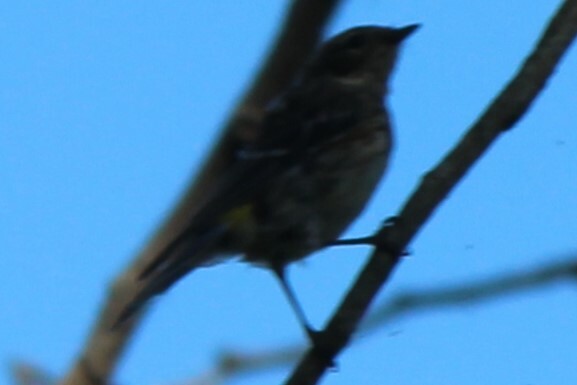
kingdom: Animalia
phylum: Chordata
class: Aves
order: Passeriformes
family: Parulidae
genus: Setophaga
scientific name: Setophaga coronata
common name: Myrtle warbler
